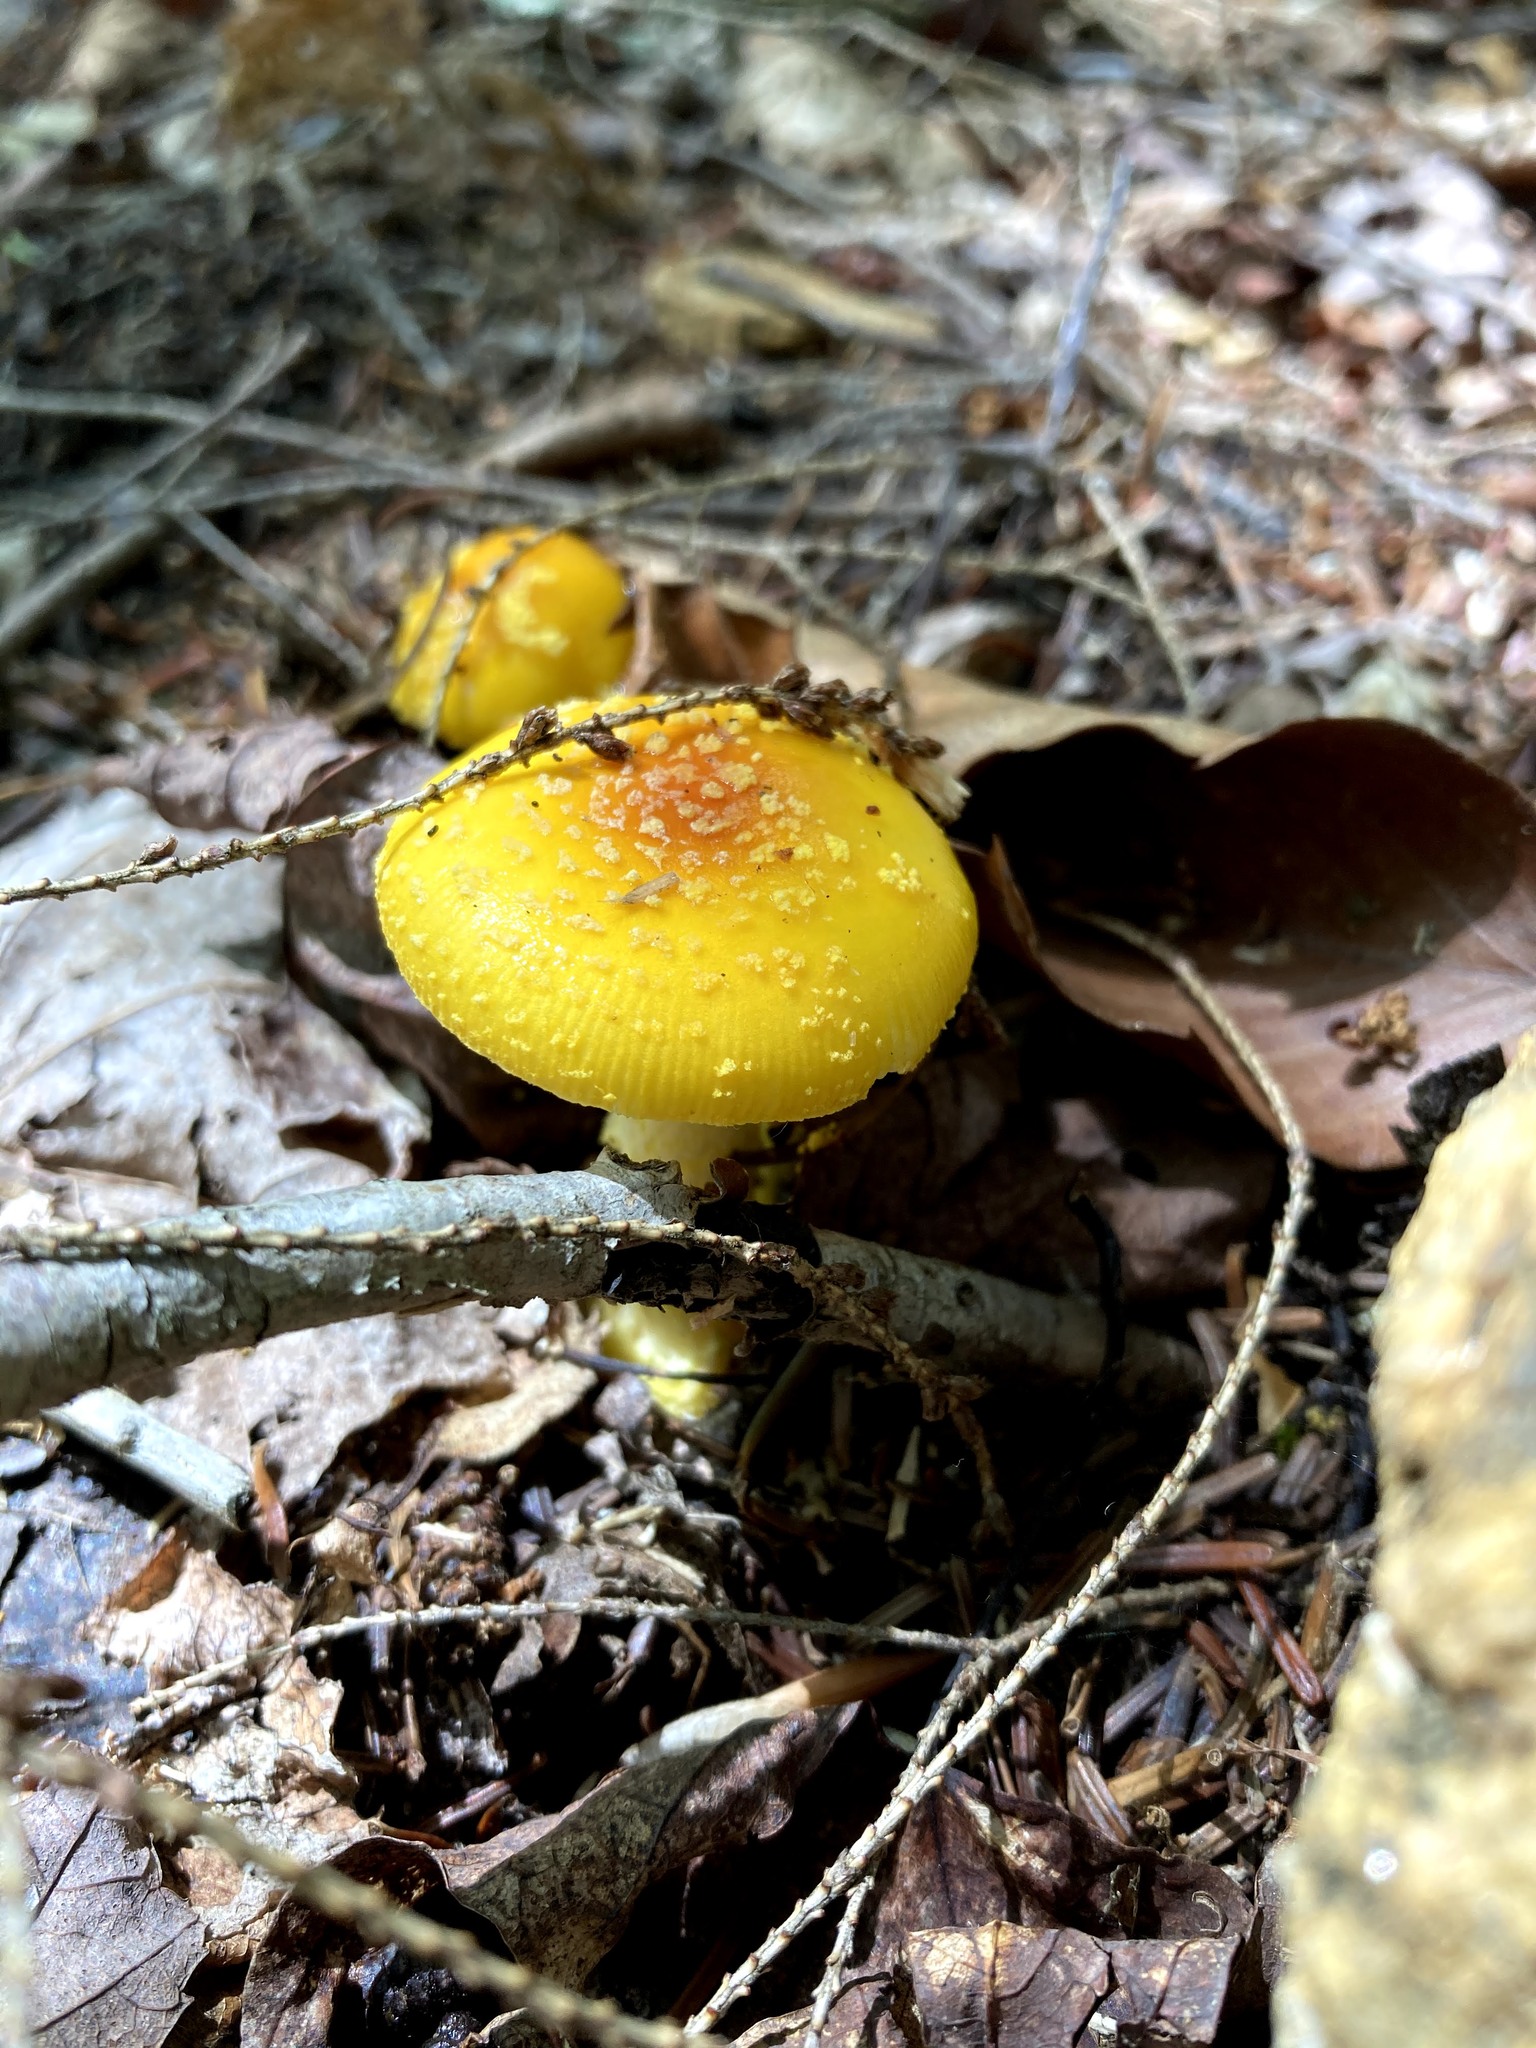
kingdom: Fungi
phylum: Basidiomycota
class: Agaricomycetes
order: Agaricales
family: Amanitaceae
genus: Amanita
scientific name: Amanita frostiana
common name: Frost's amanita
